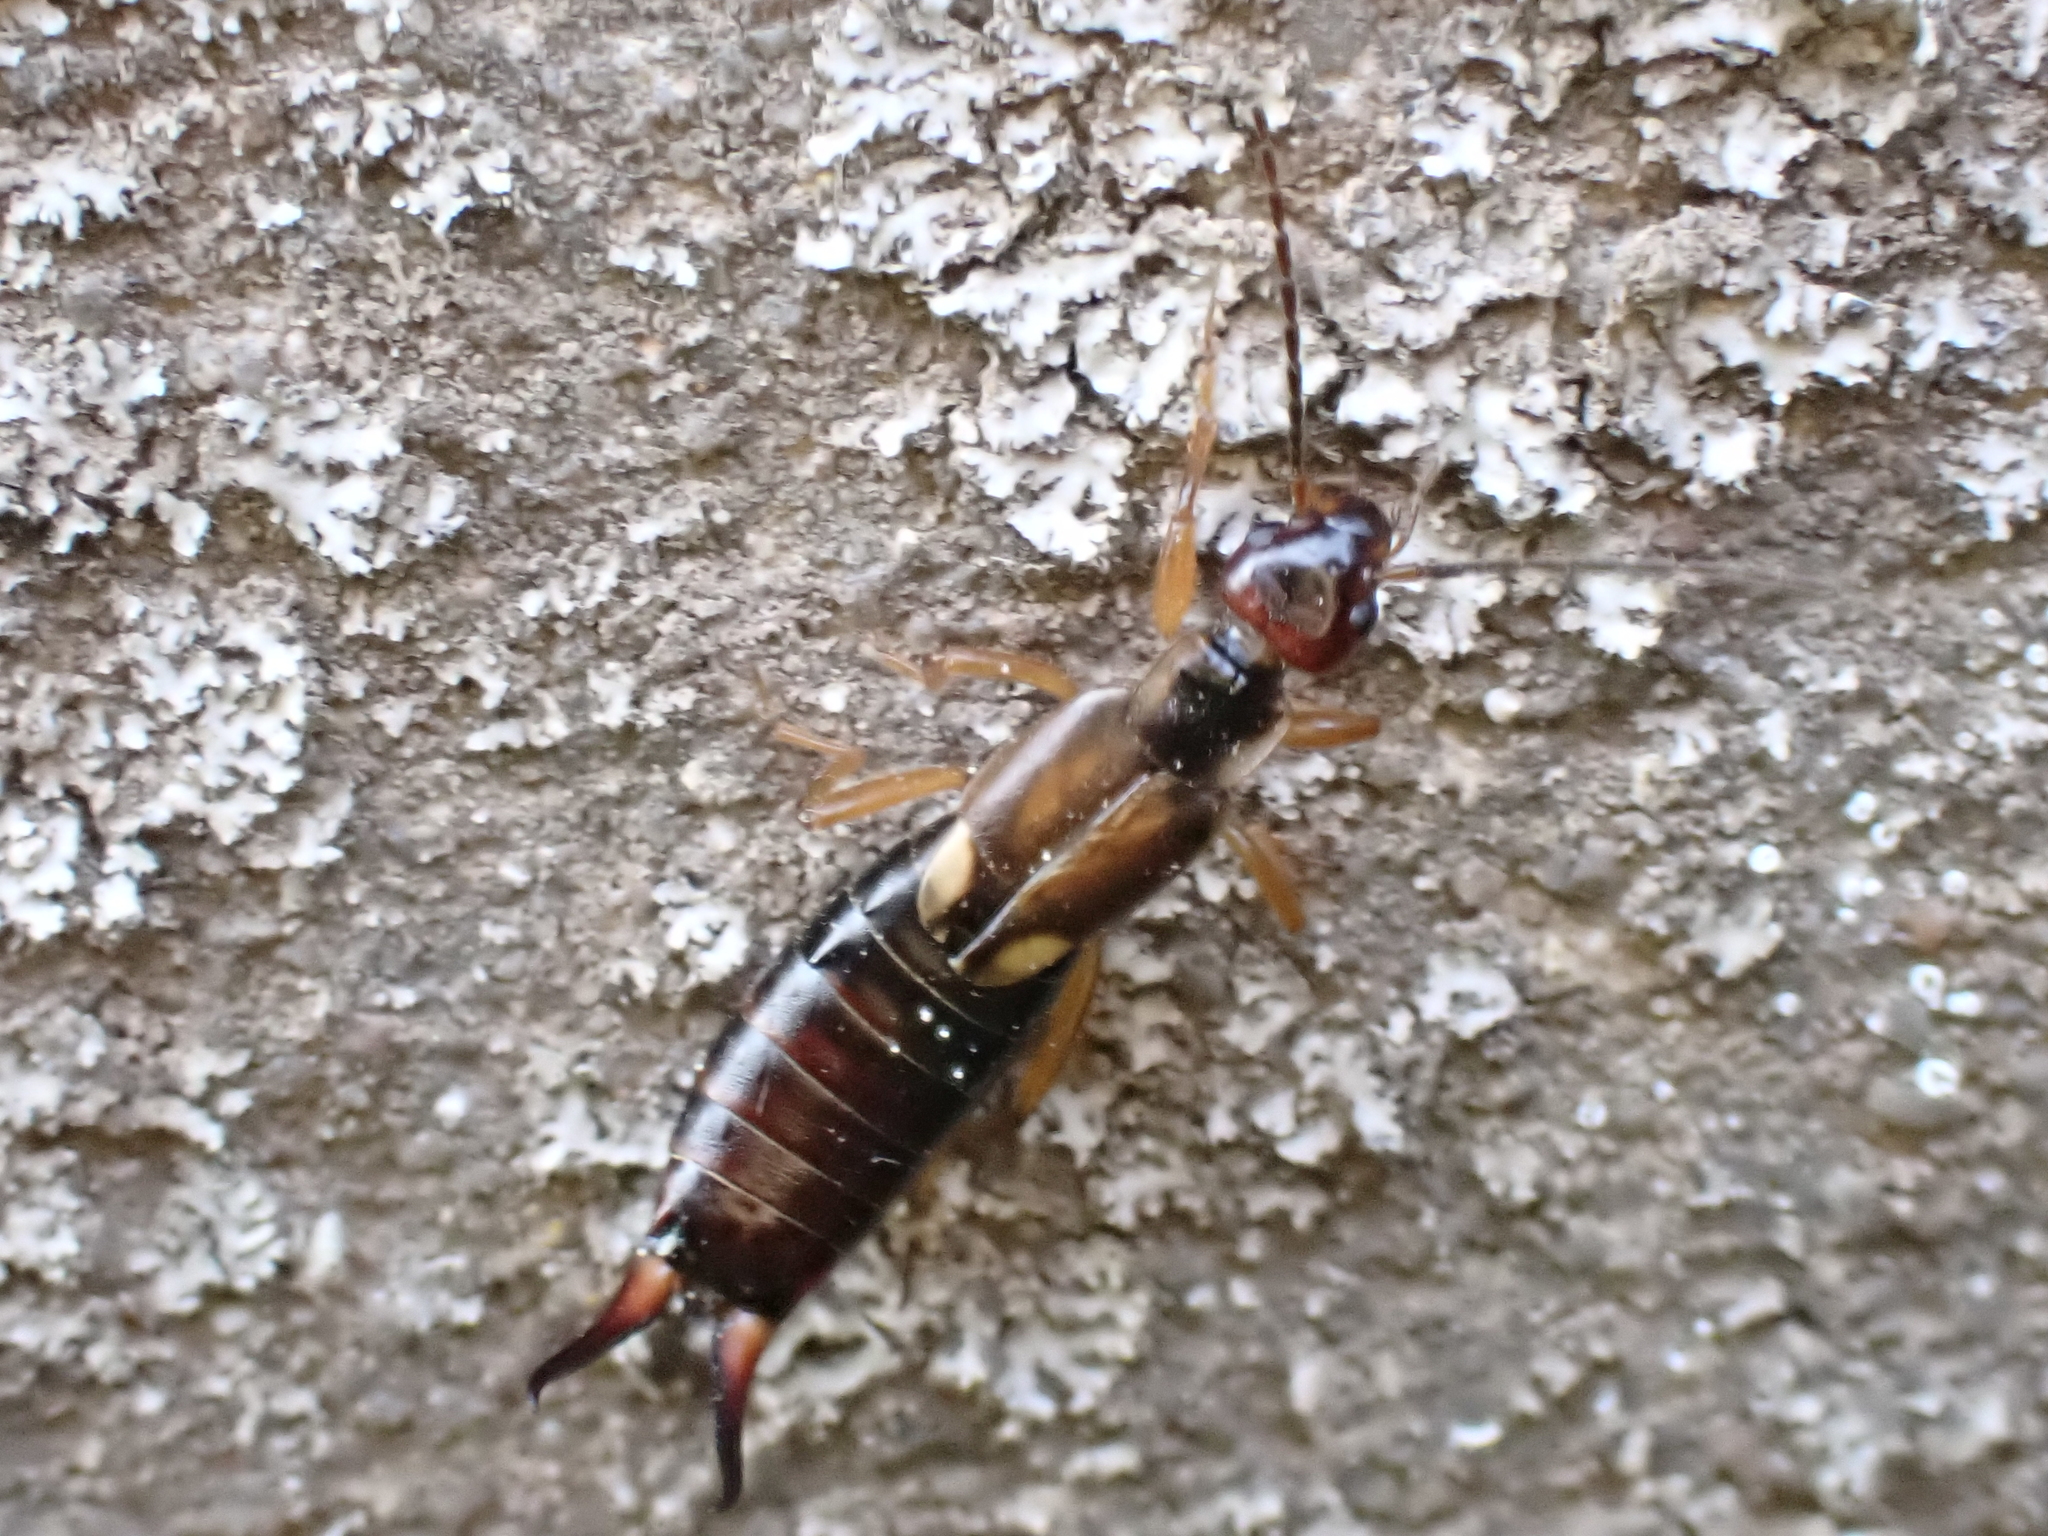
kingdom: Animalia
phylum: Arthropoda
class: Insecta
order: Dermaptera
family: Forficulidae
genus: Forficula
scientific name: Forficula
